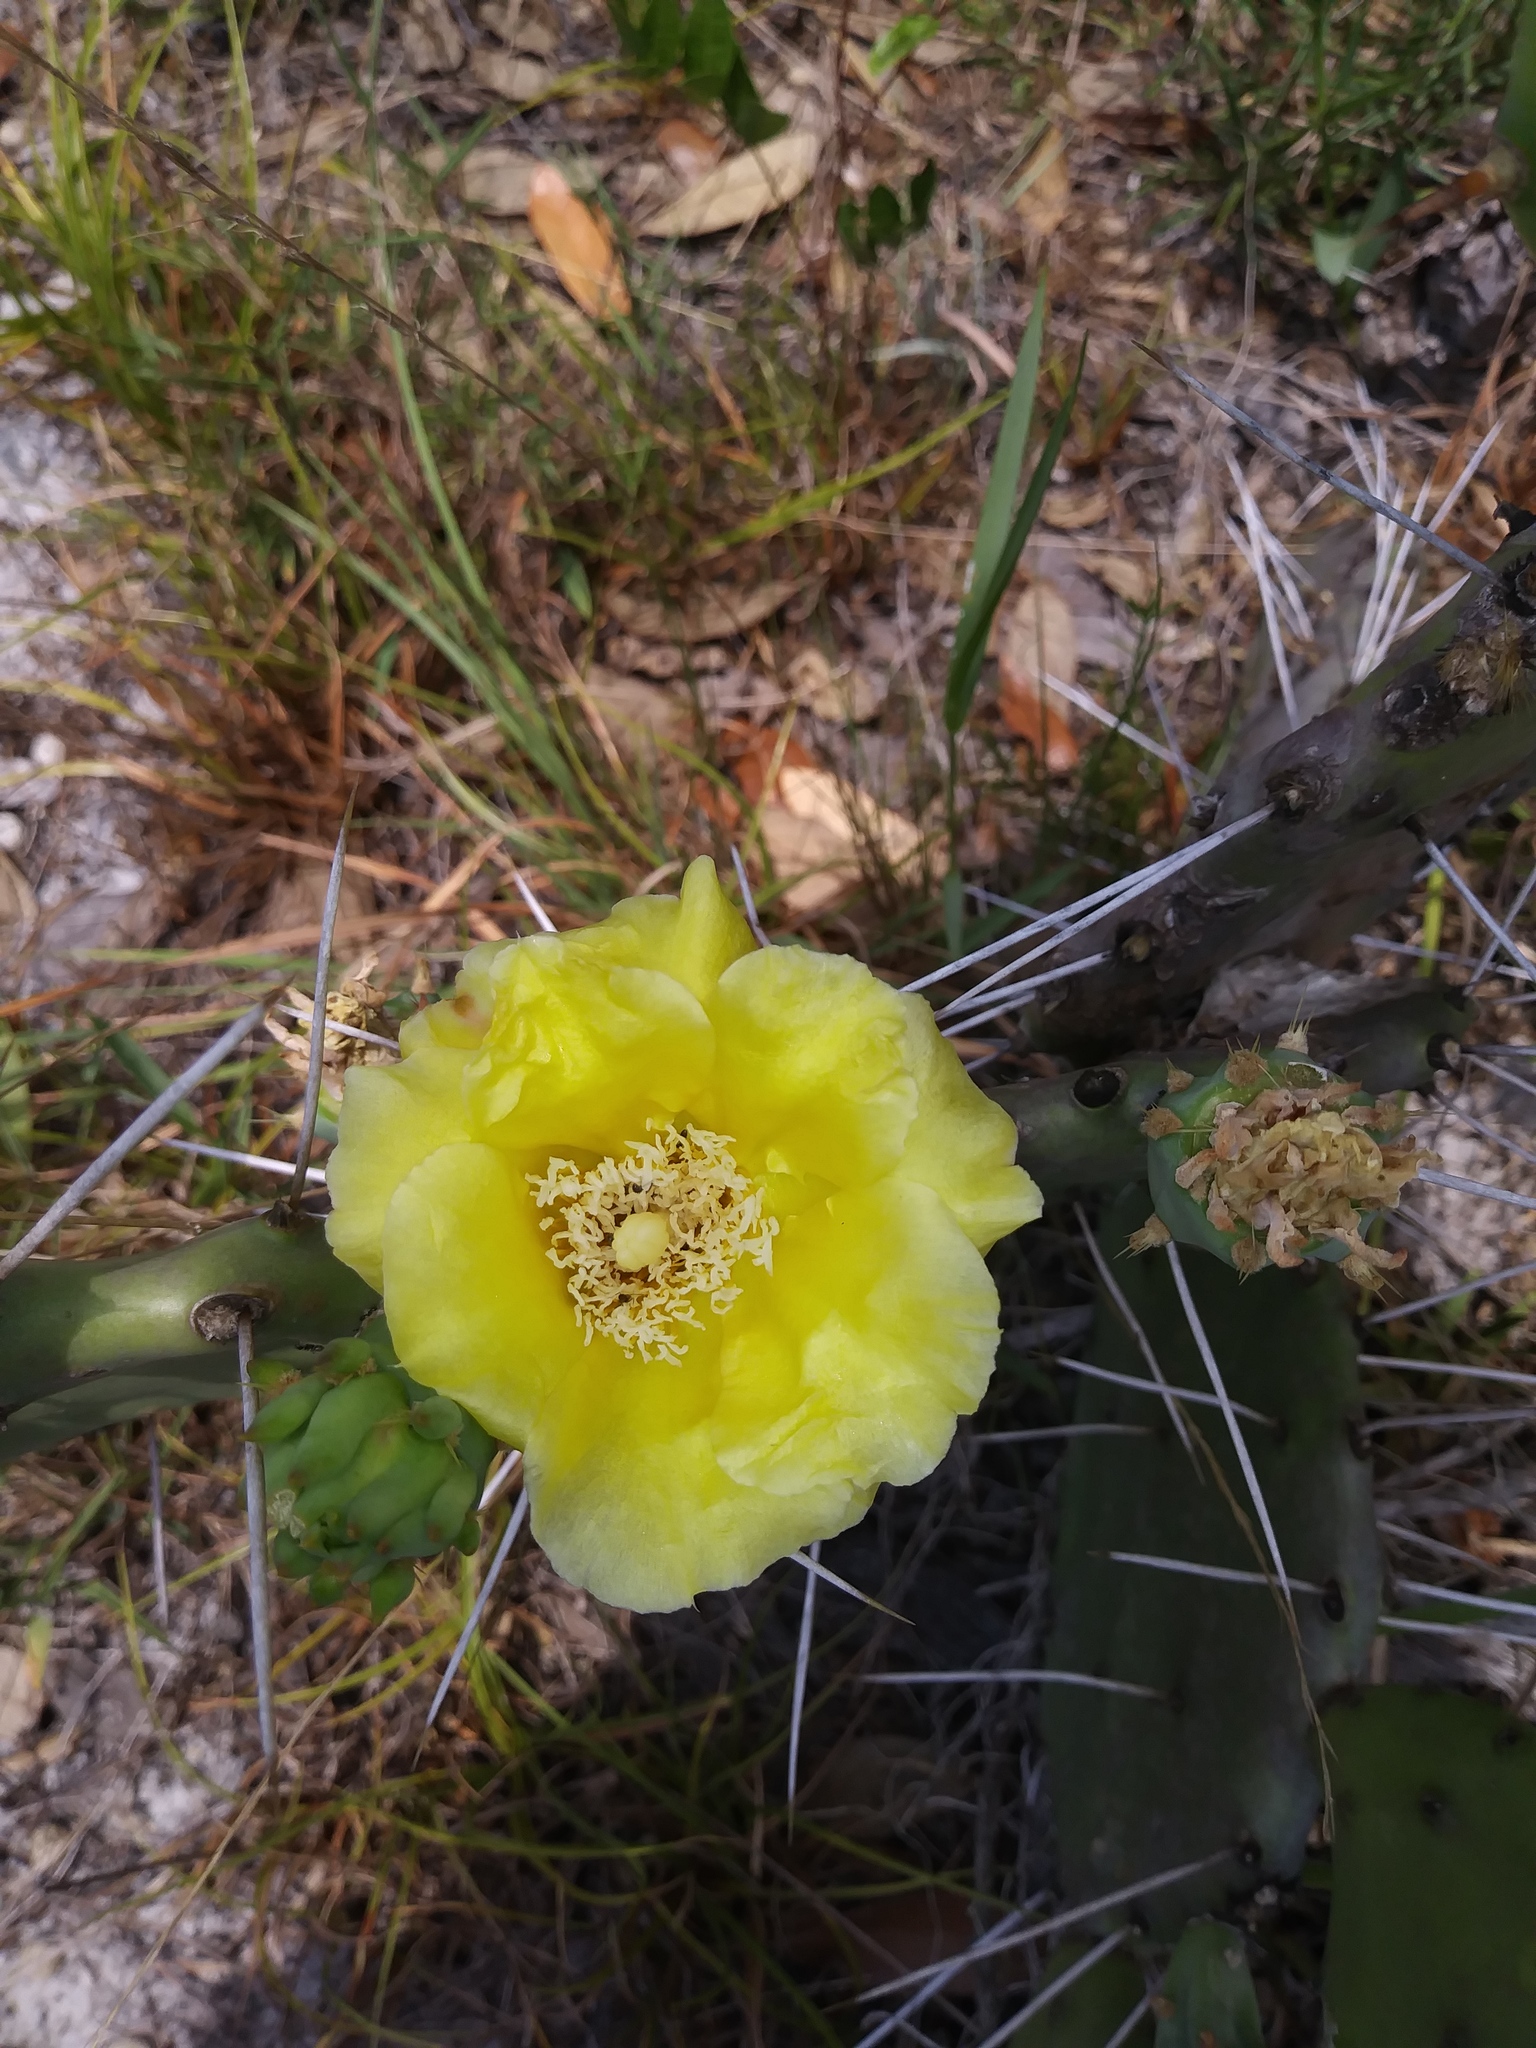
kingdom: Plantae
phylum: Tracheophyta
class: Magnoliopsida
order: Caryophyllales
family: Cactaceae
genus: Opuntia
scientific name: Opuntia austrina
